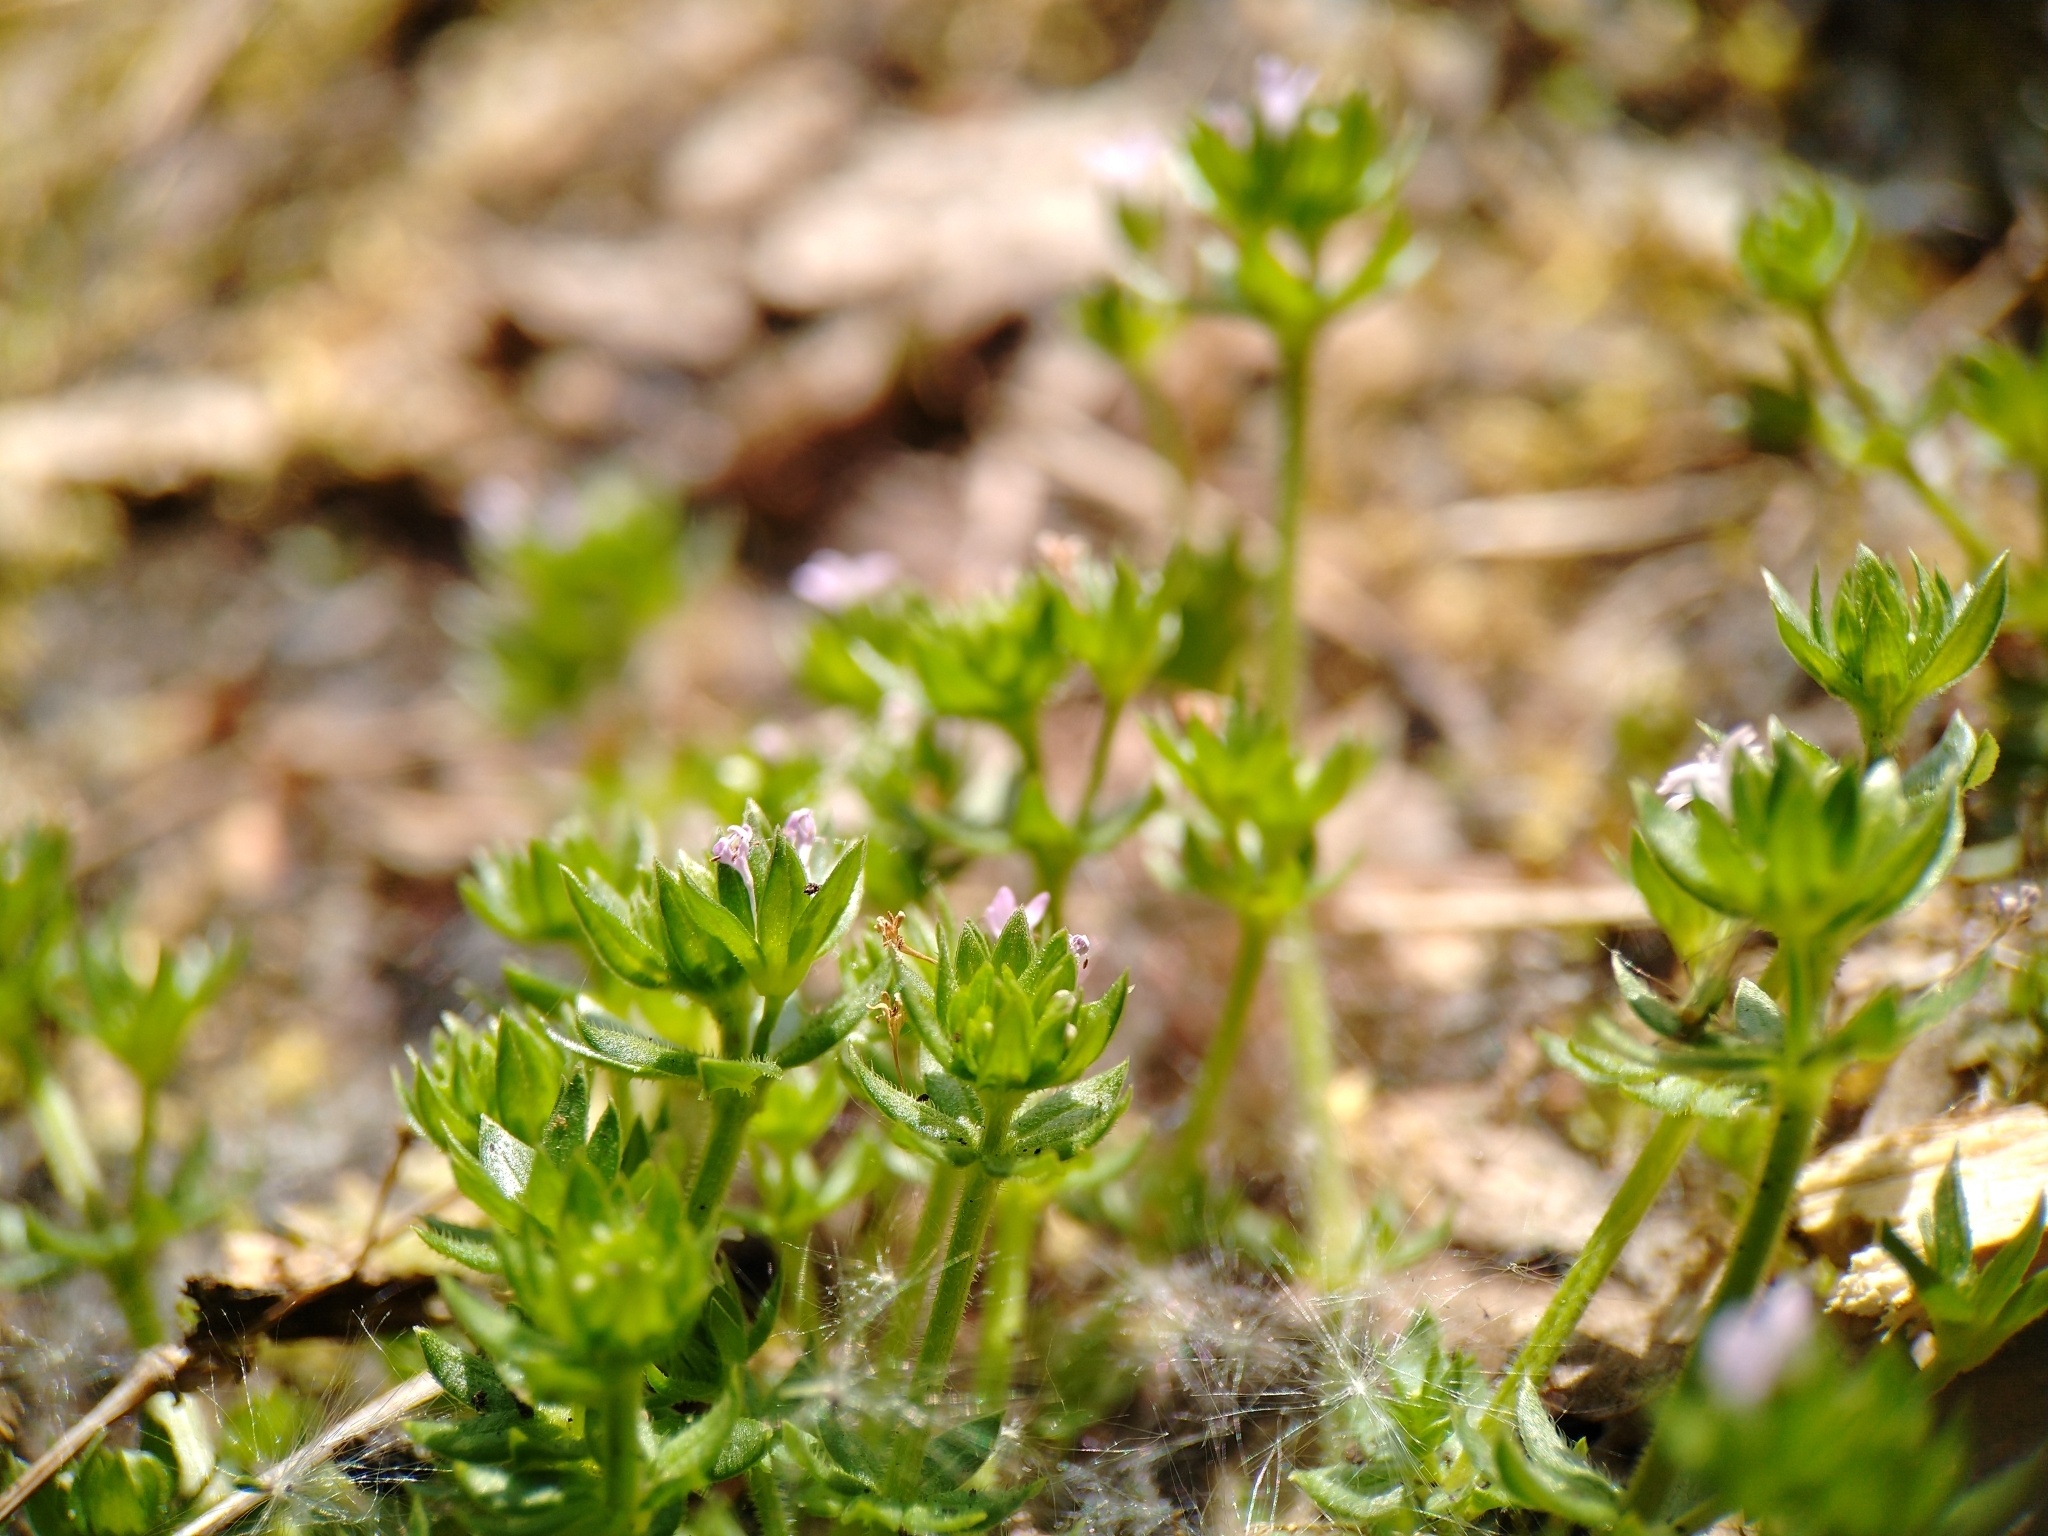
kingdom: Plantae
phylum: Tracheophyta
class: Magnoliopsida
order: Gentianales
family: Rubiaceae
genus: Sherardia
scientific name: Sherardia arvensis
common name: Field madder
